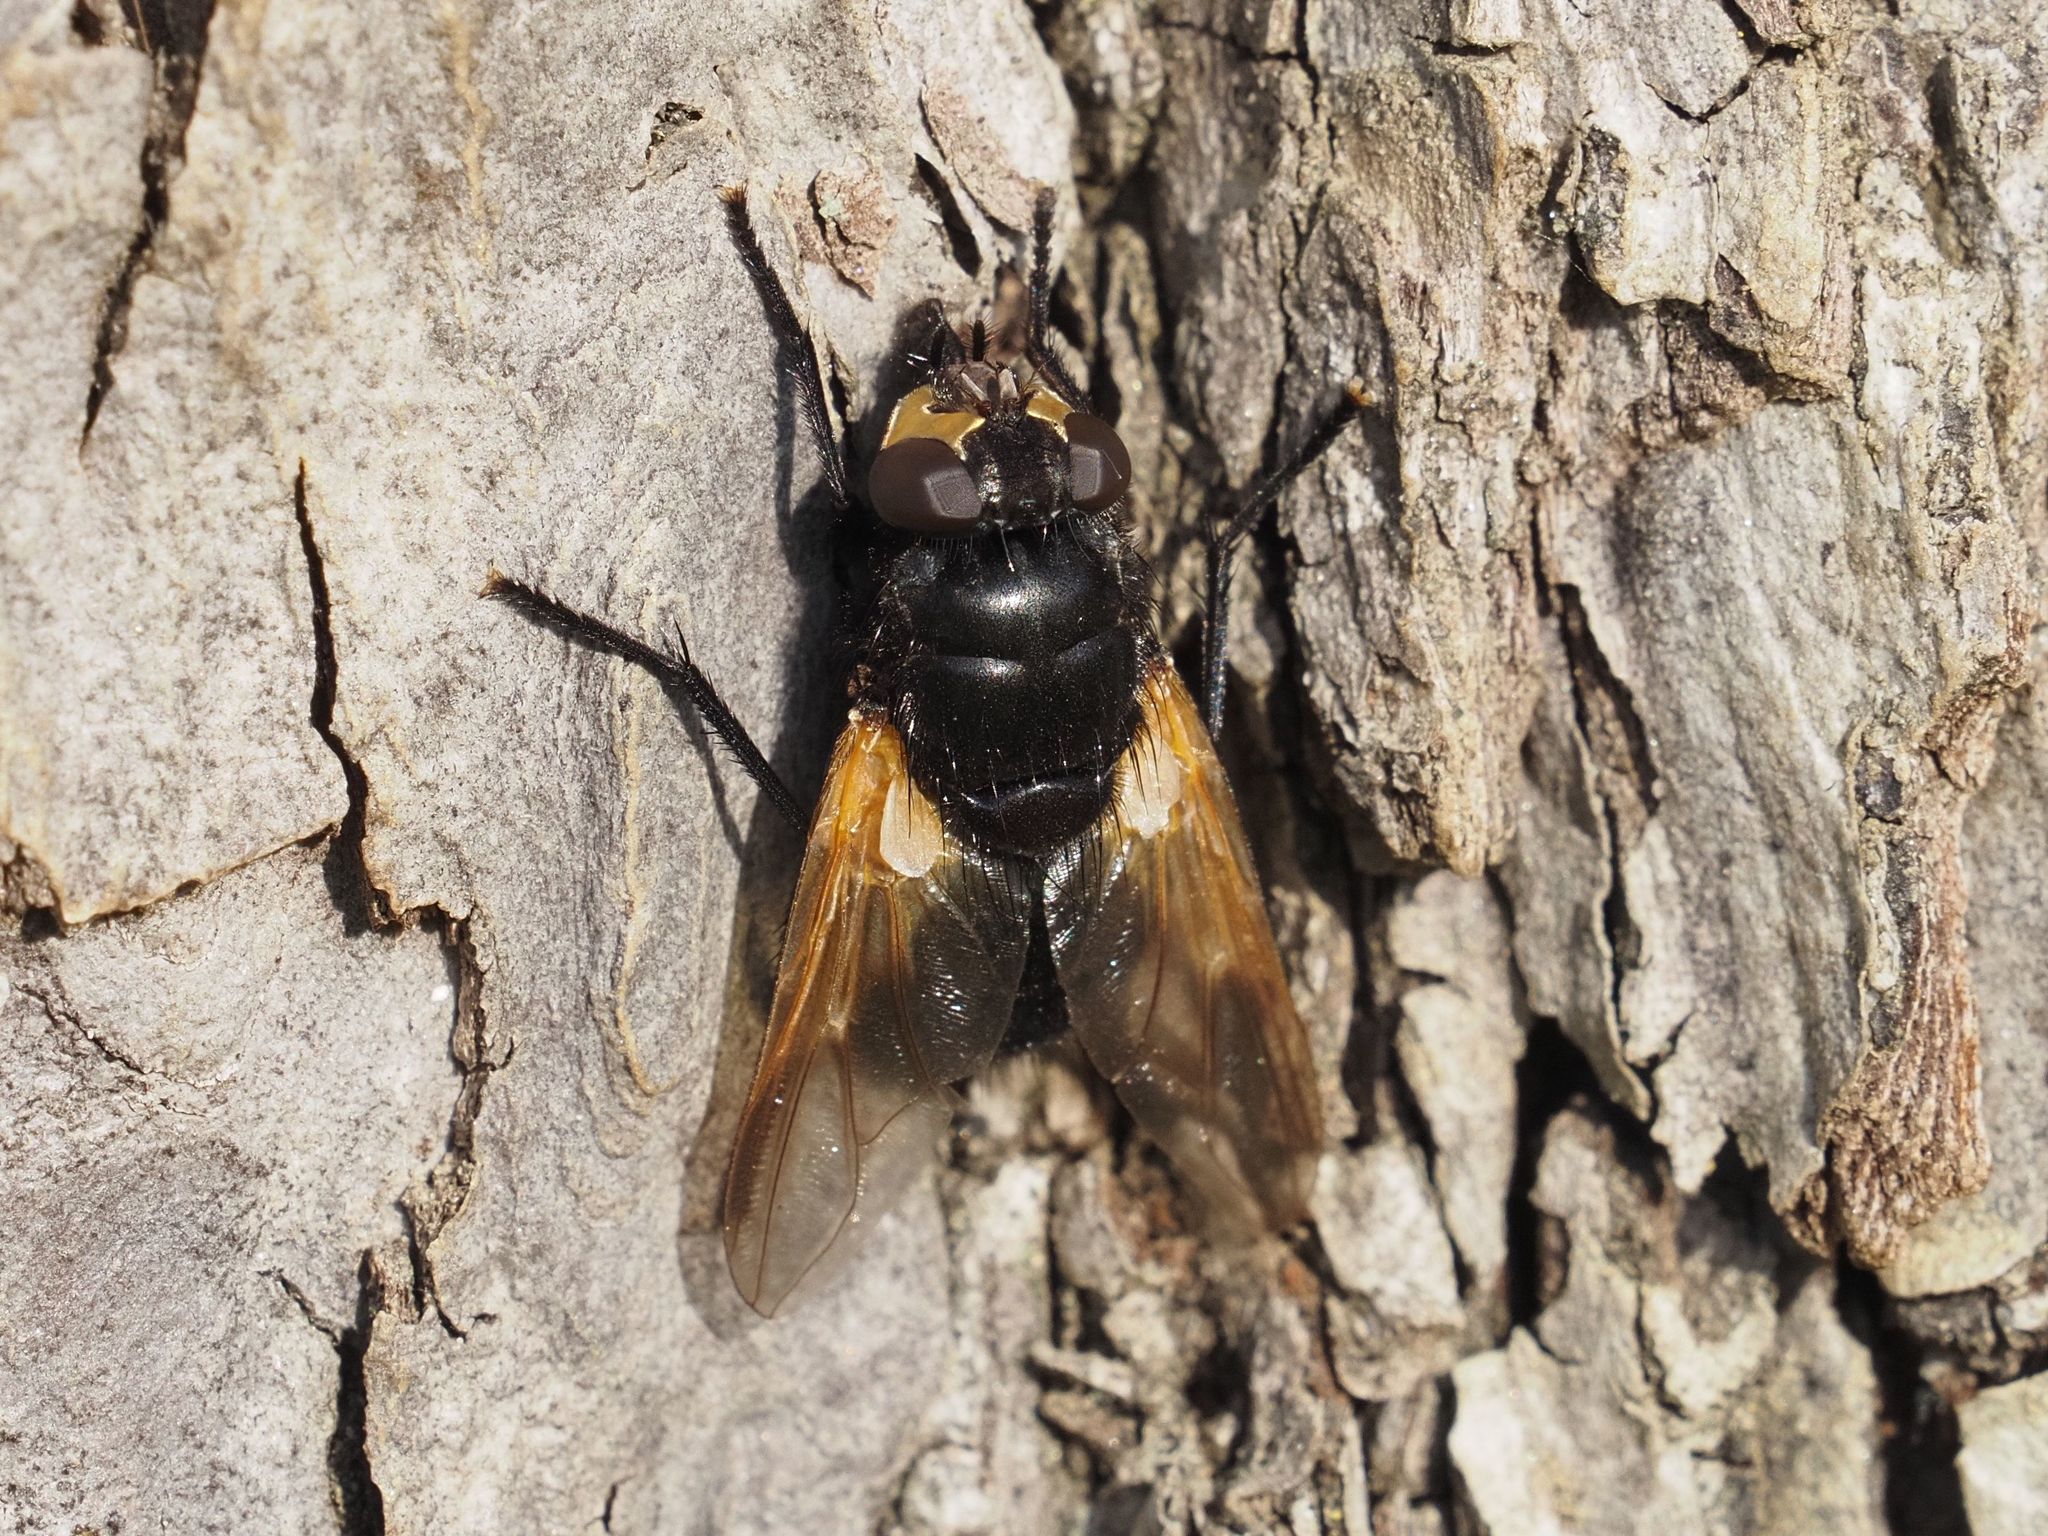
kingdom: Animalia
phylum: Arthropoda
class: Insecta
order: Diptera
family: Muscidae
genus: Mesembrina
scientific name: Mesembrina meridiana
